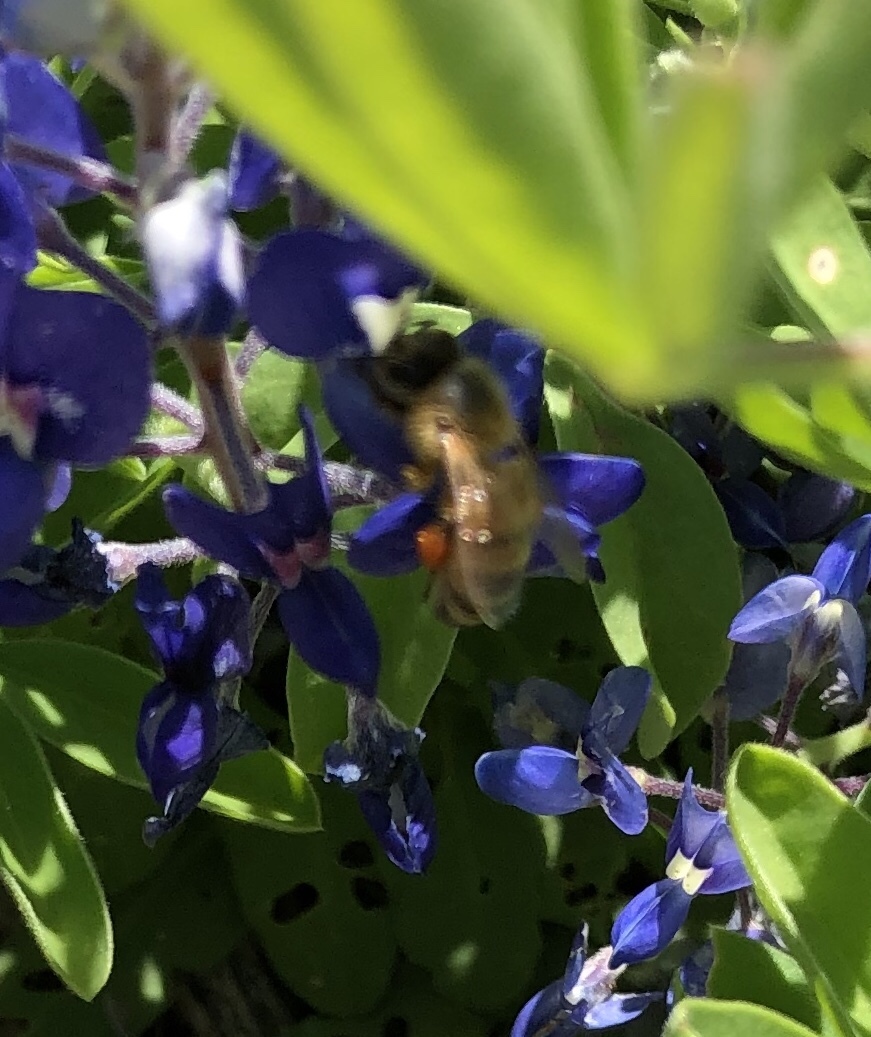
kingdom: Animalia
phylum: Arthropoda
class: Insecta
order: Hymenoptera
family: Apidae
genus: Apis
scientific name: Apis mellifera
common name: Honey bee
